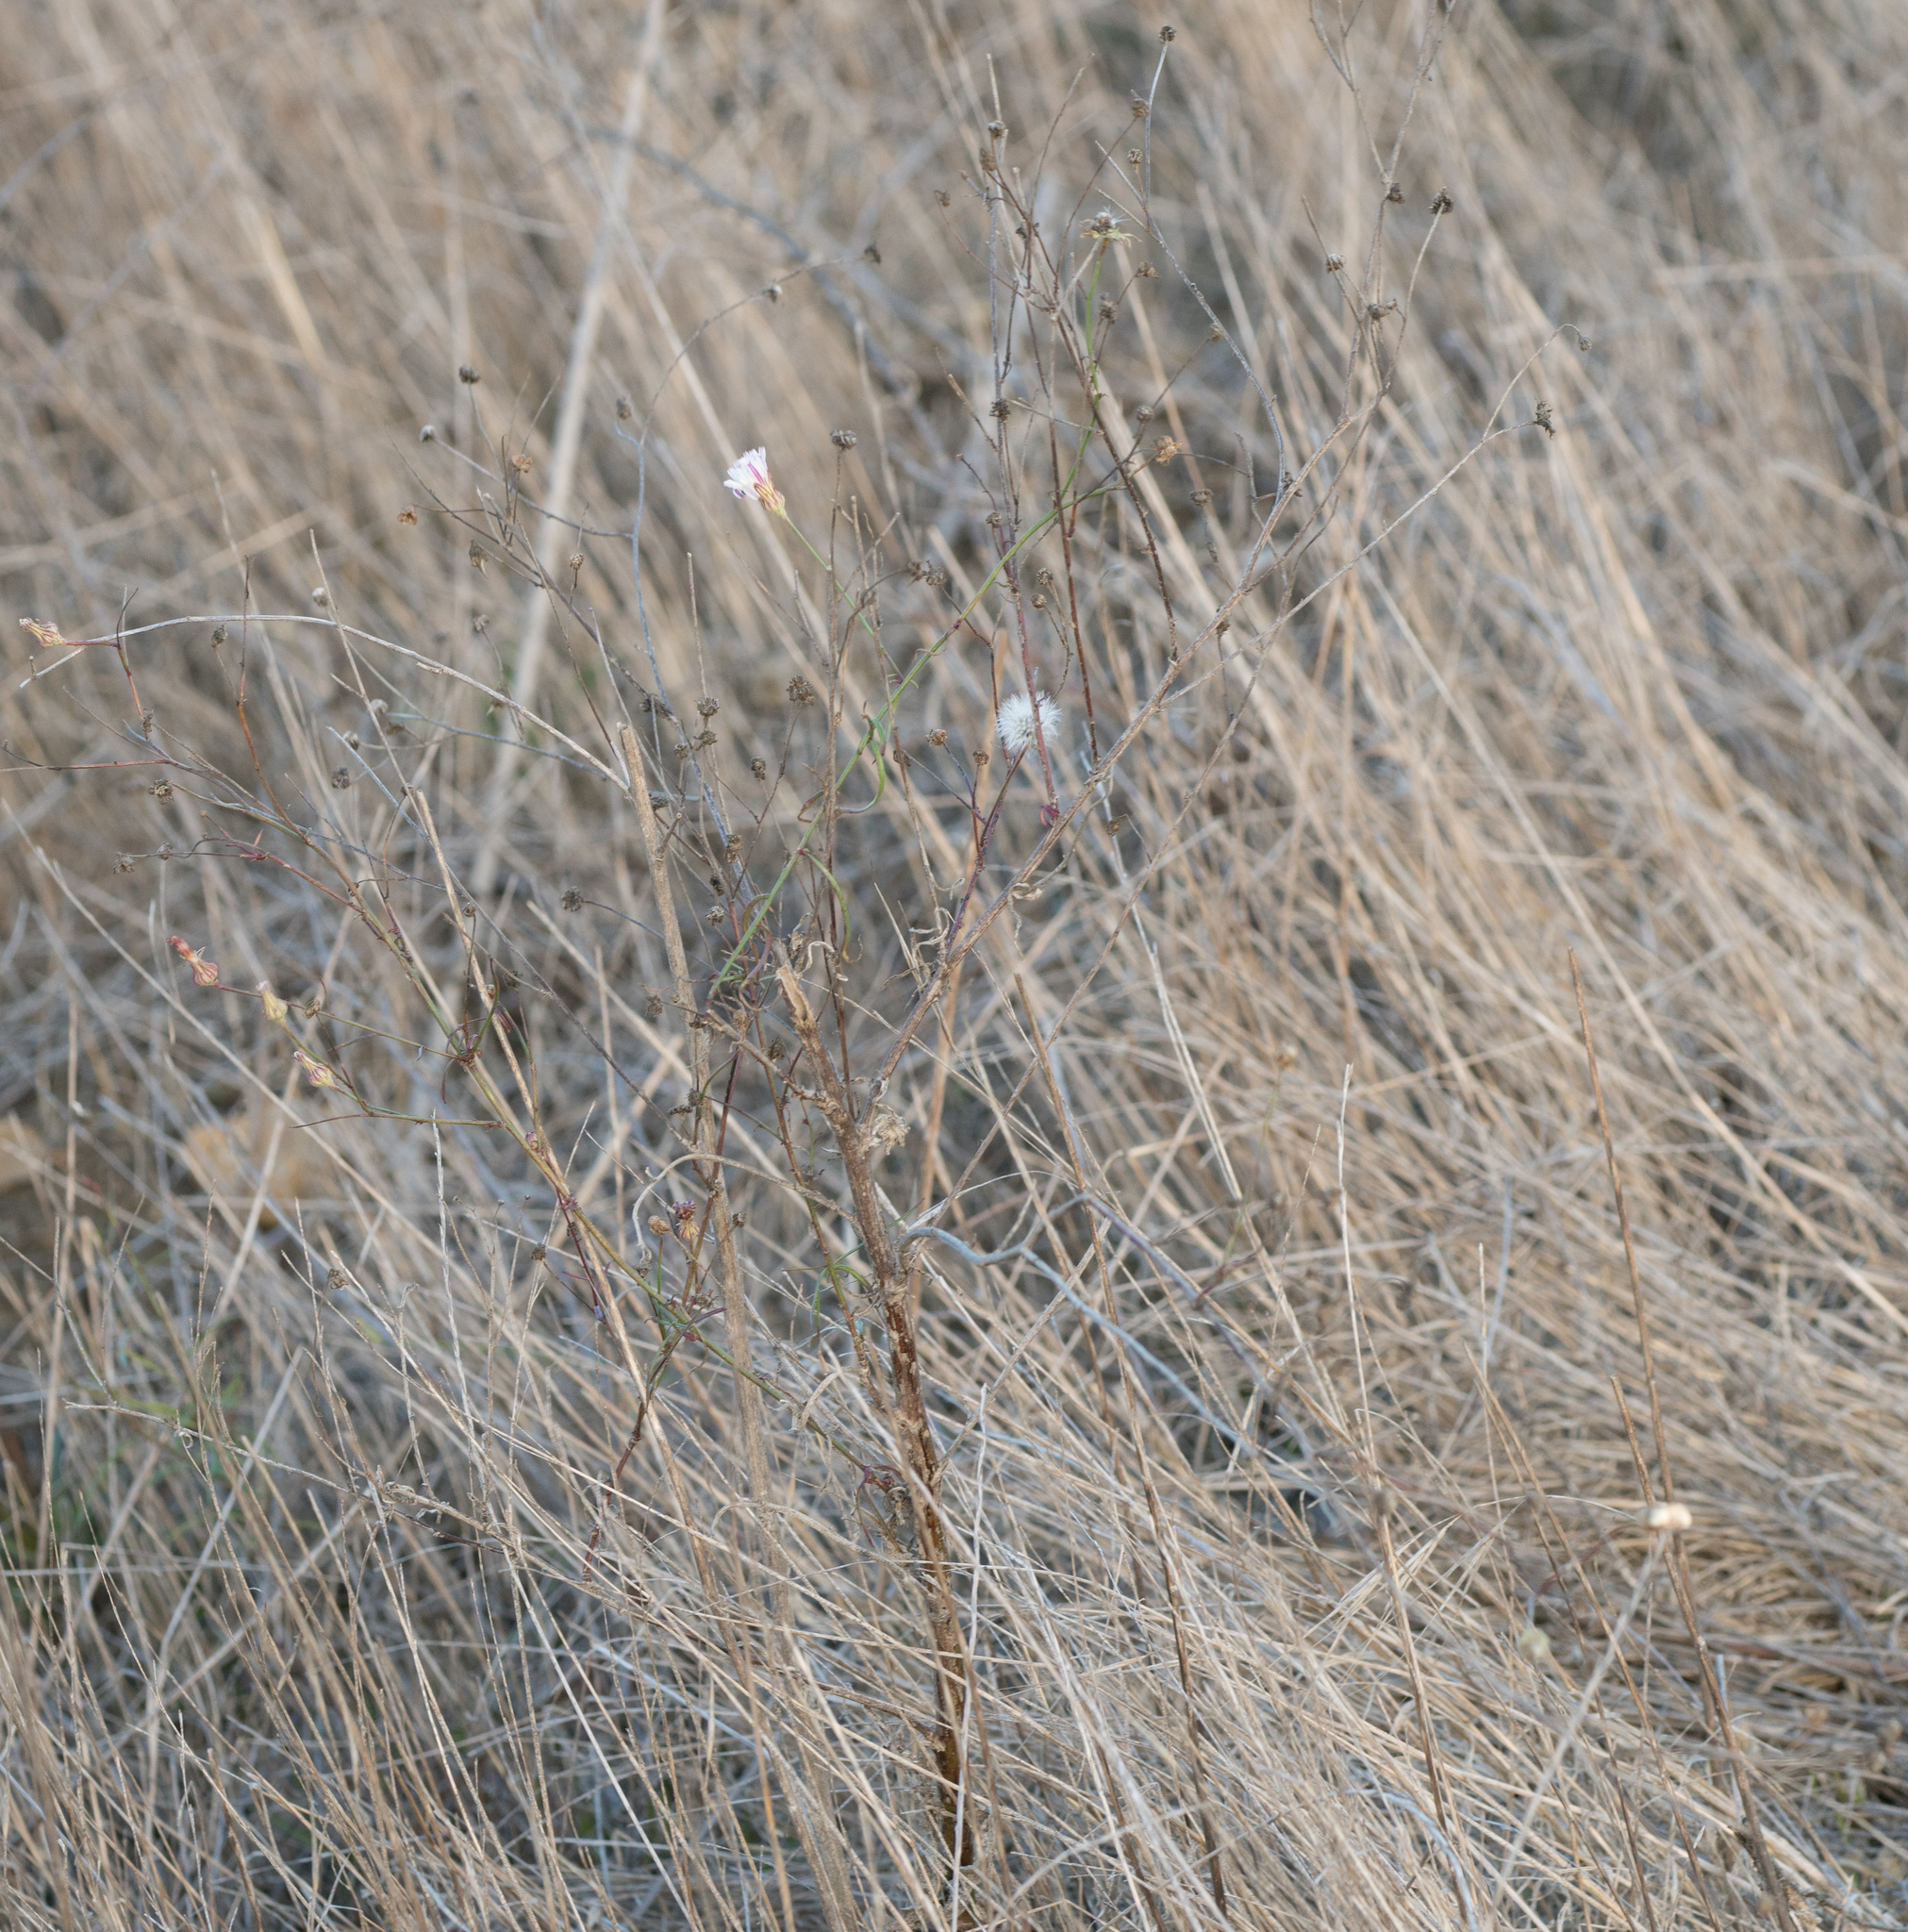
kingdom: Plantae
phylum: Tracheophyta
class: Magnoliopsida
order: Asterales
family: Asteraceae
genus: Malacothrix
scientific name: Malacothrix saxatilis
